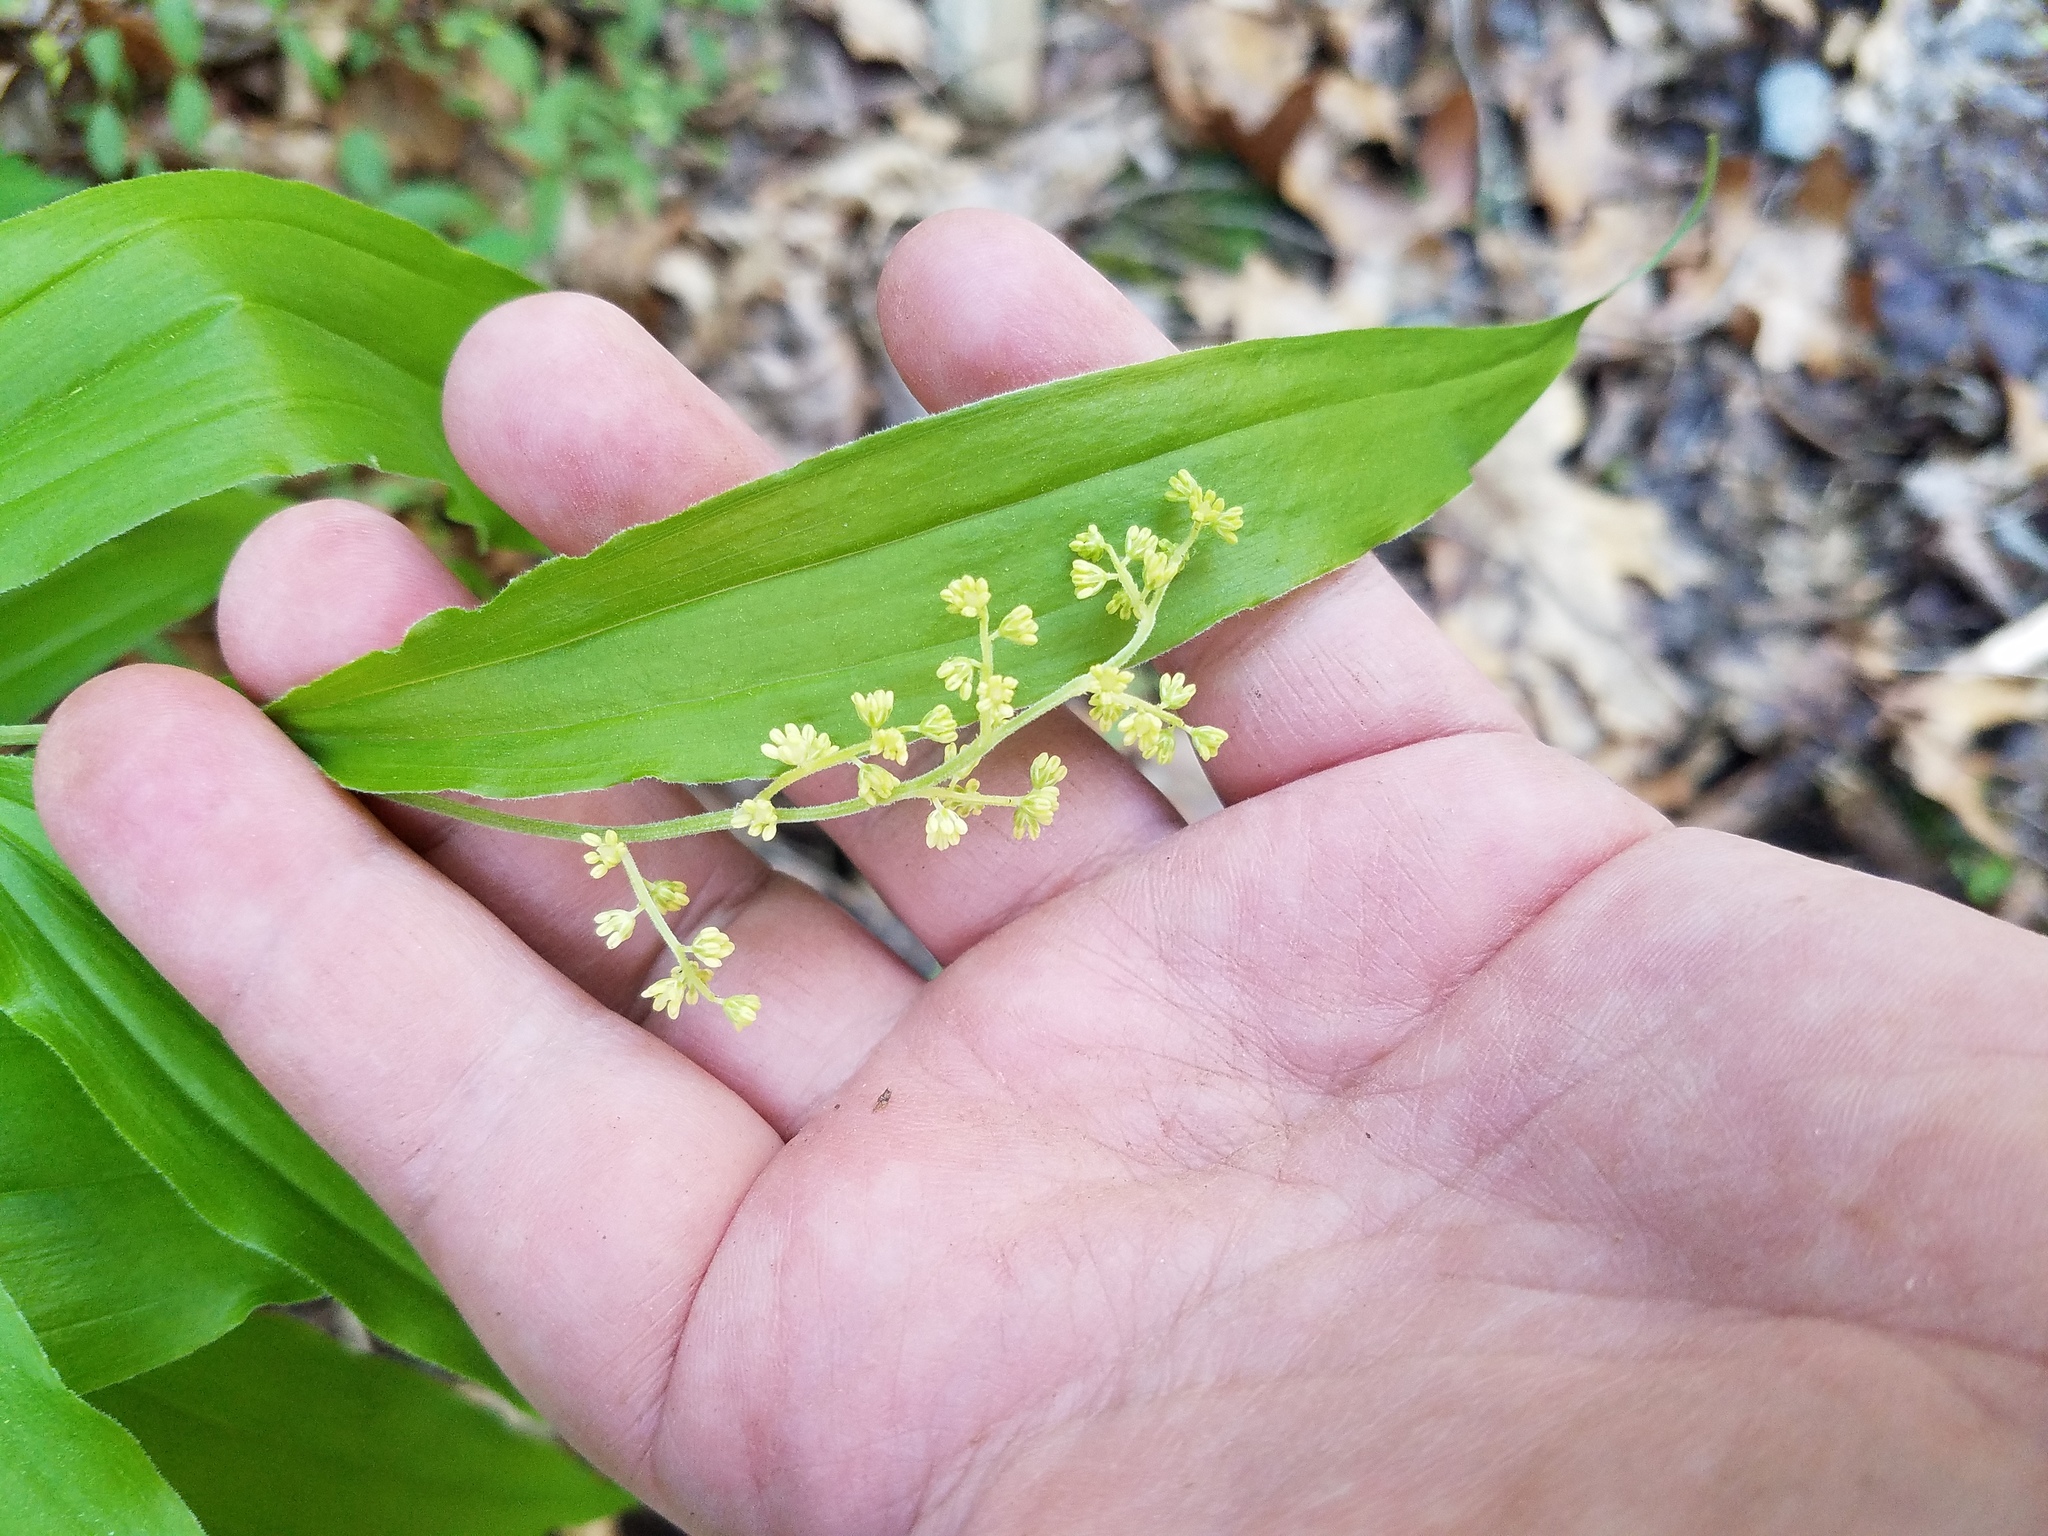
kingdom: Plantae
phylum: Tracheophyta
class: Liliopsida
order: Asparagales
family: Asparagaceae
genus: Maianthemum
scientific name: Maianthemum racemosum
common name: False spikenard
